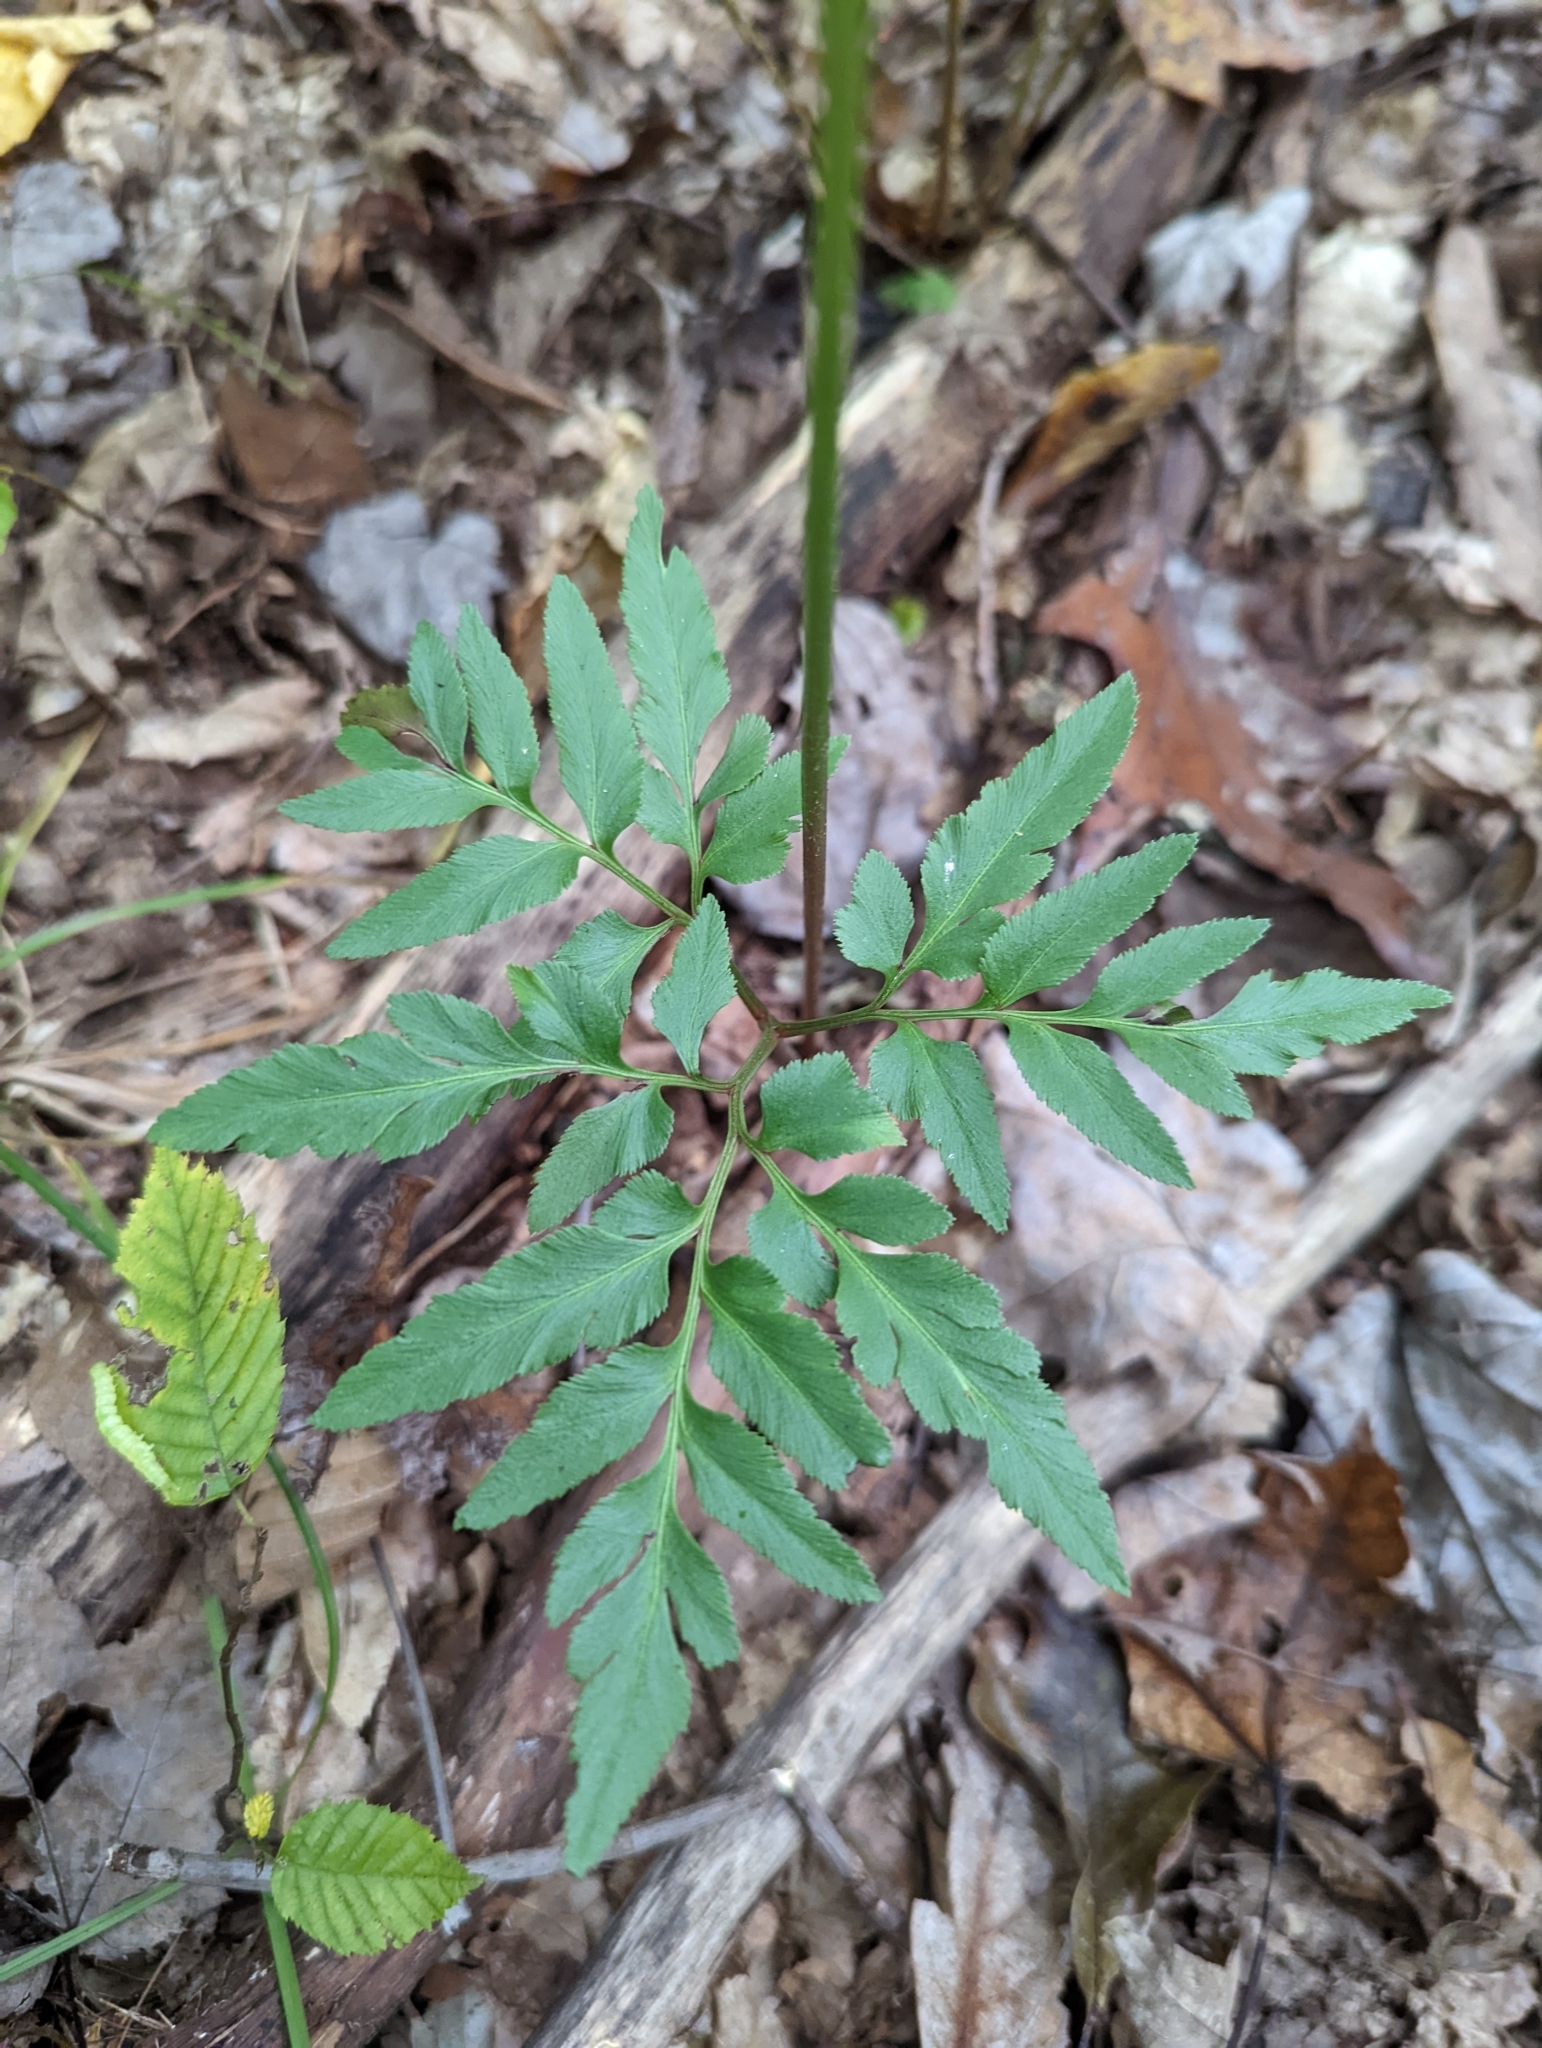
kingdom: Plantae
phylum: Tracheophyta
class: Polypodiopsida
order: Ophioglossales
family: Ophioglossaceae
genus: Sceptridium
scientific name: Sceptridium dissectum
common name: Cut-leaved grapefern
